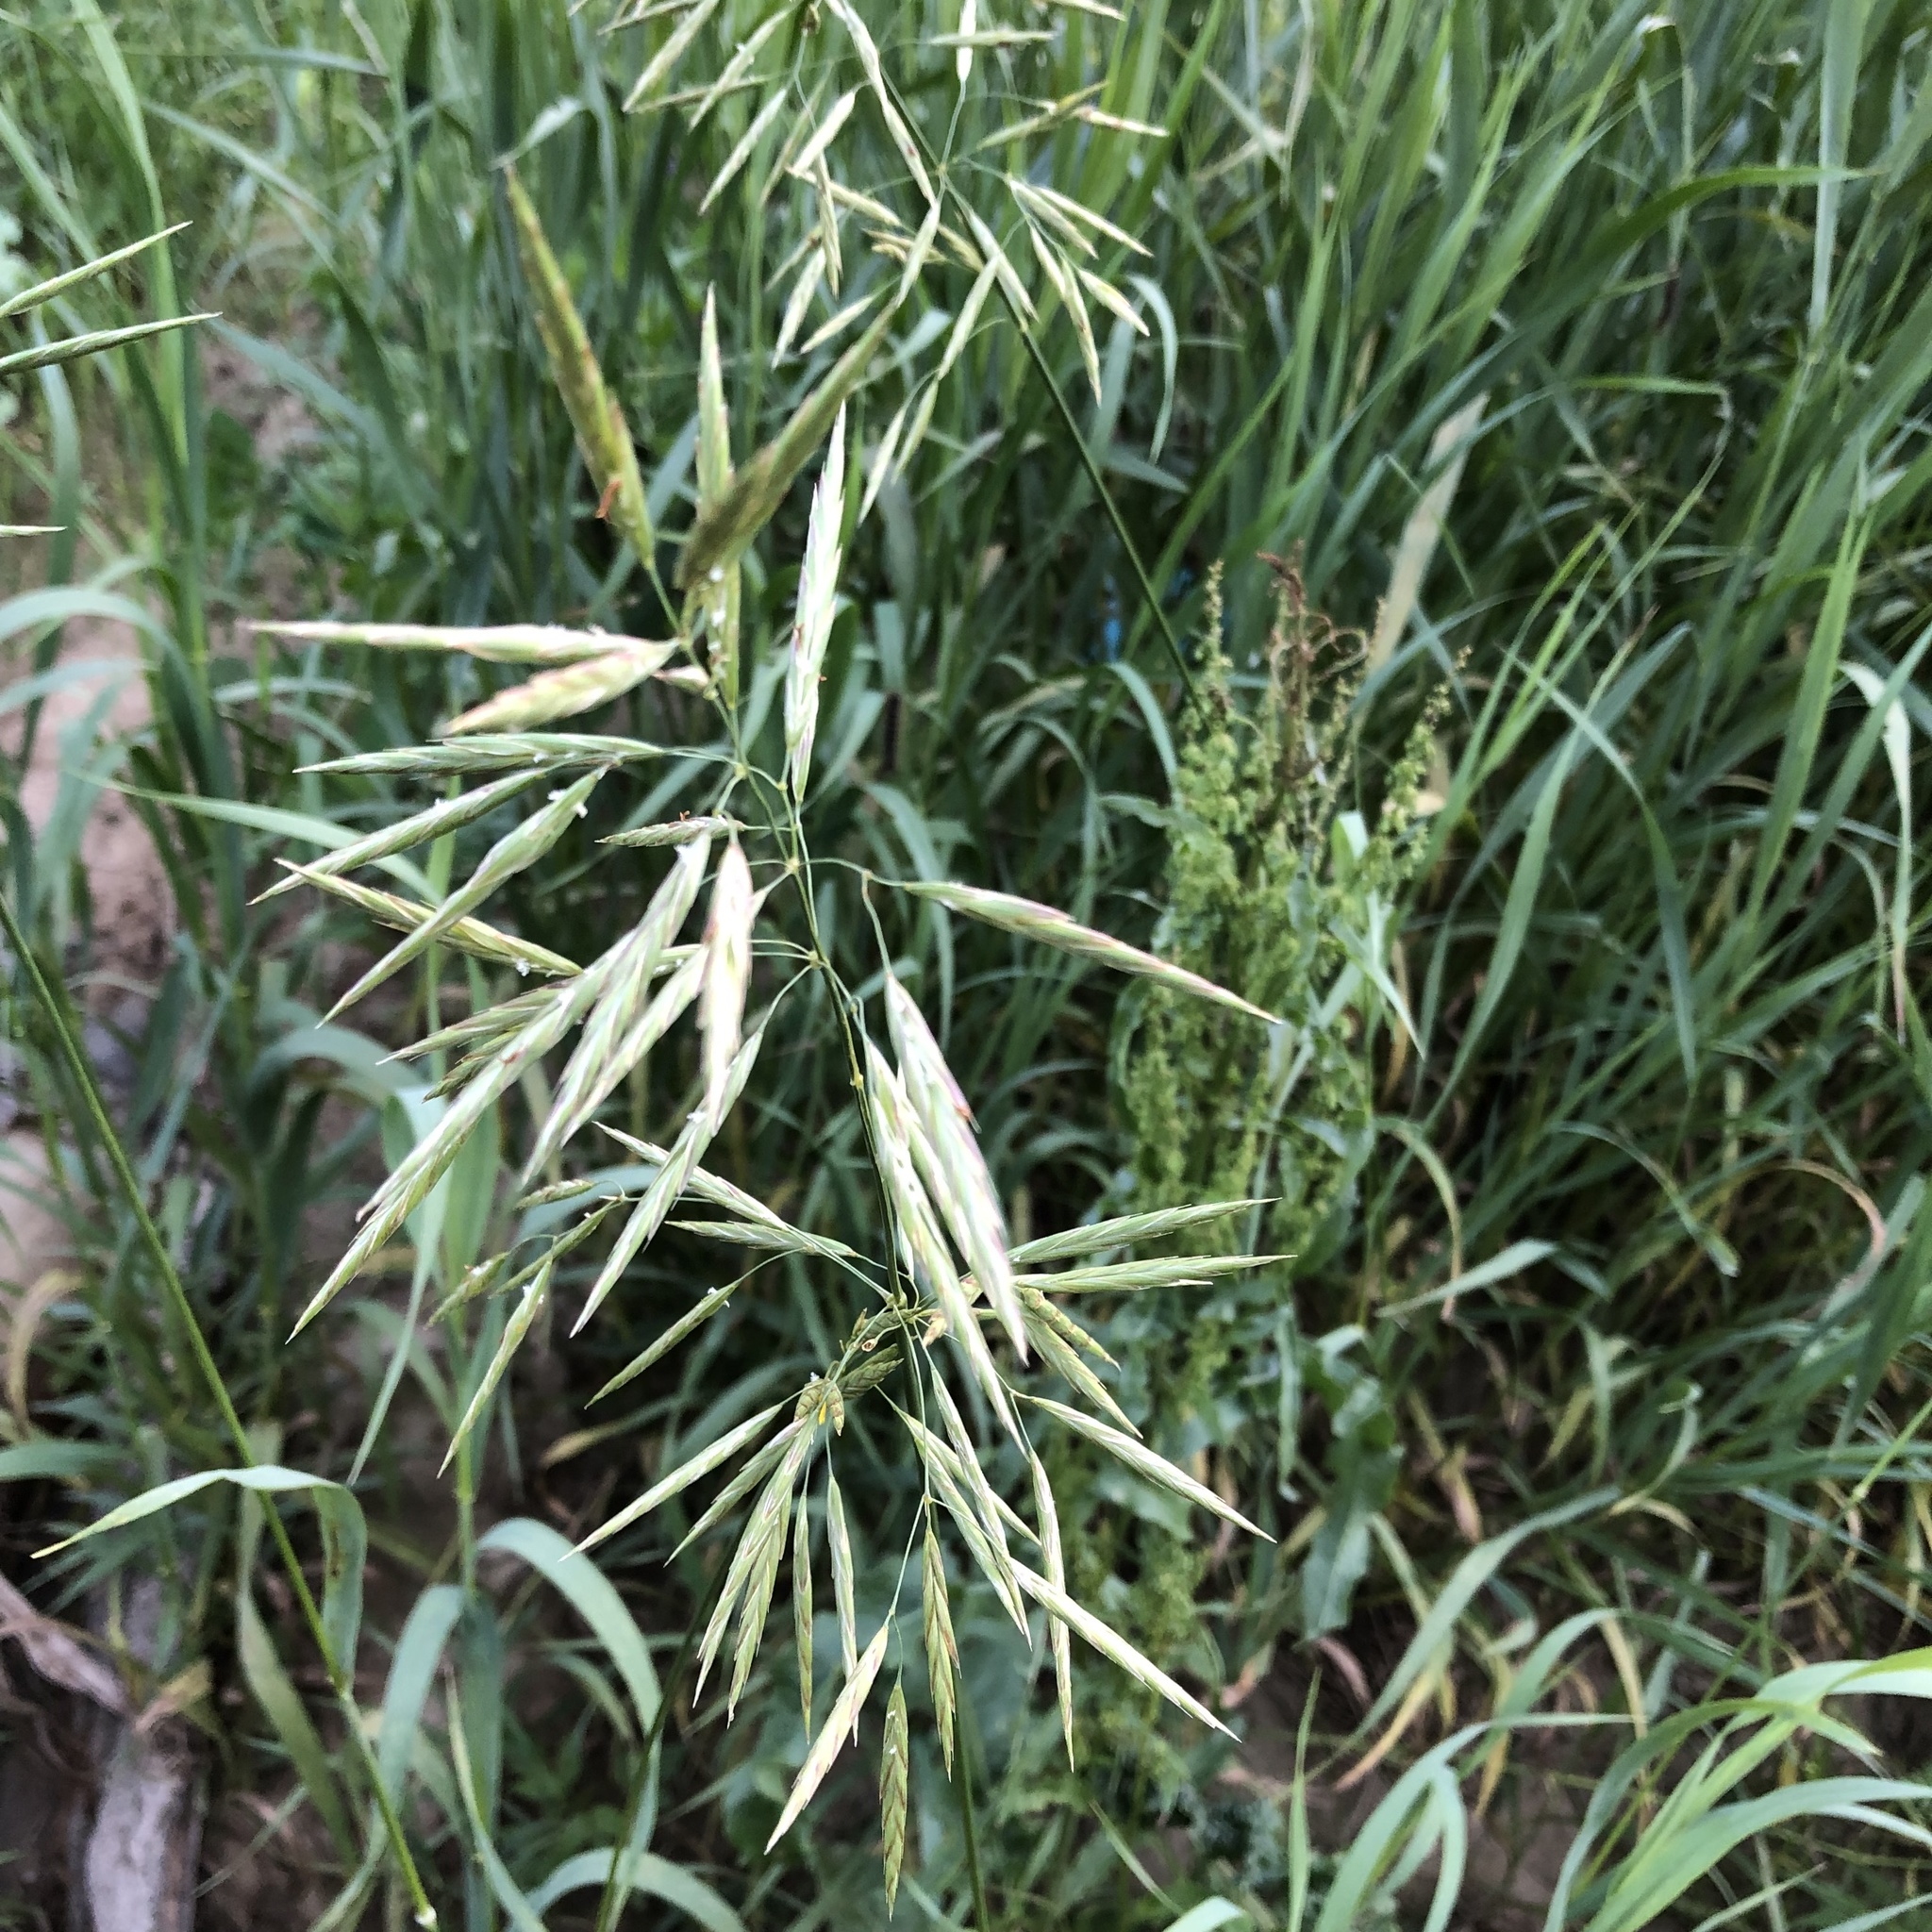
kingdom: Plantae
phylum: Tracheophyta
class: Liliopsida
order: Poales
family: Poaceae
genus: Bromus
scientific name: Bromus inermis
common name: Smooth brome
